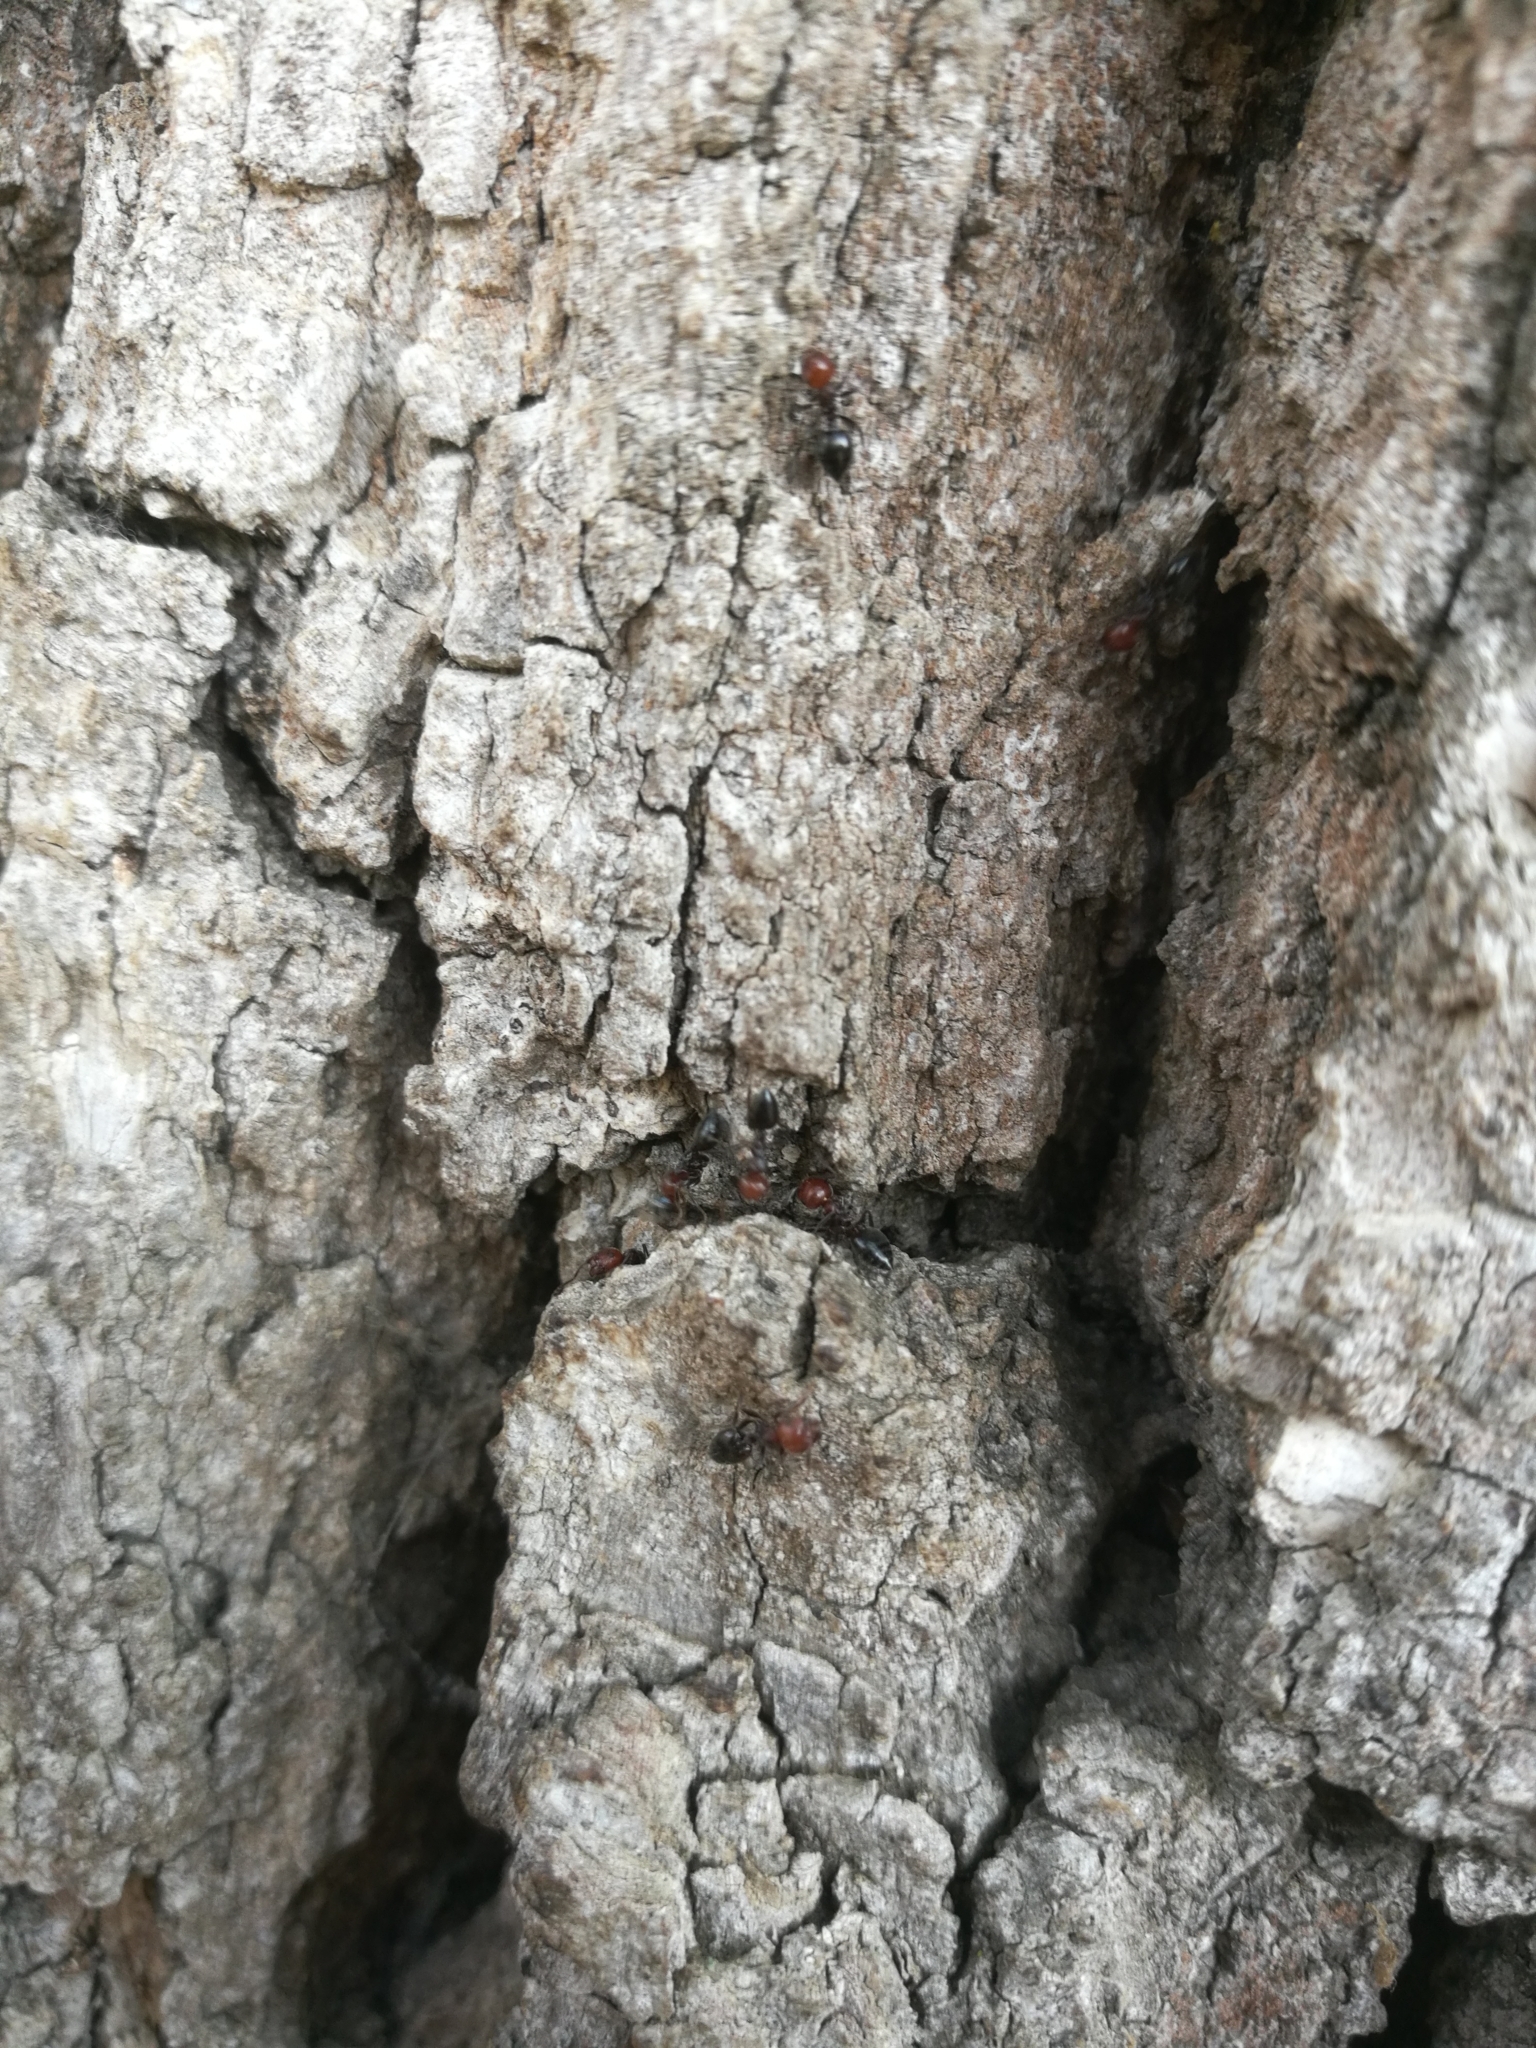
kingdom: Animalia
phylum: Arthropoda
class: Insecta
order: Hymenoptera
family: Formicidae
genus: Crematogaster
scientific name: Crematogaster scutellaris
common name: Fourmi du liège
